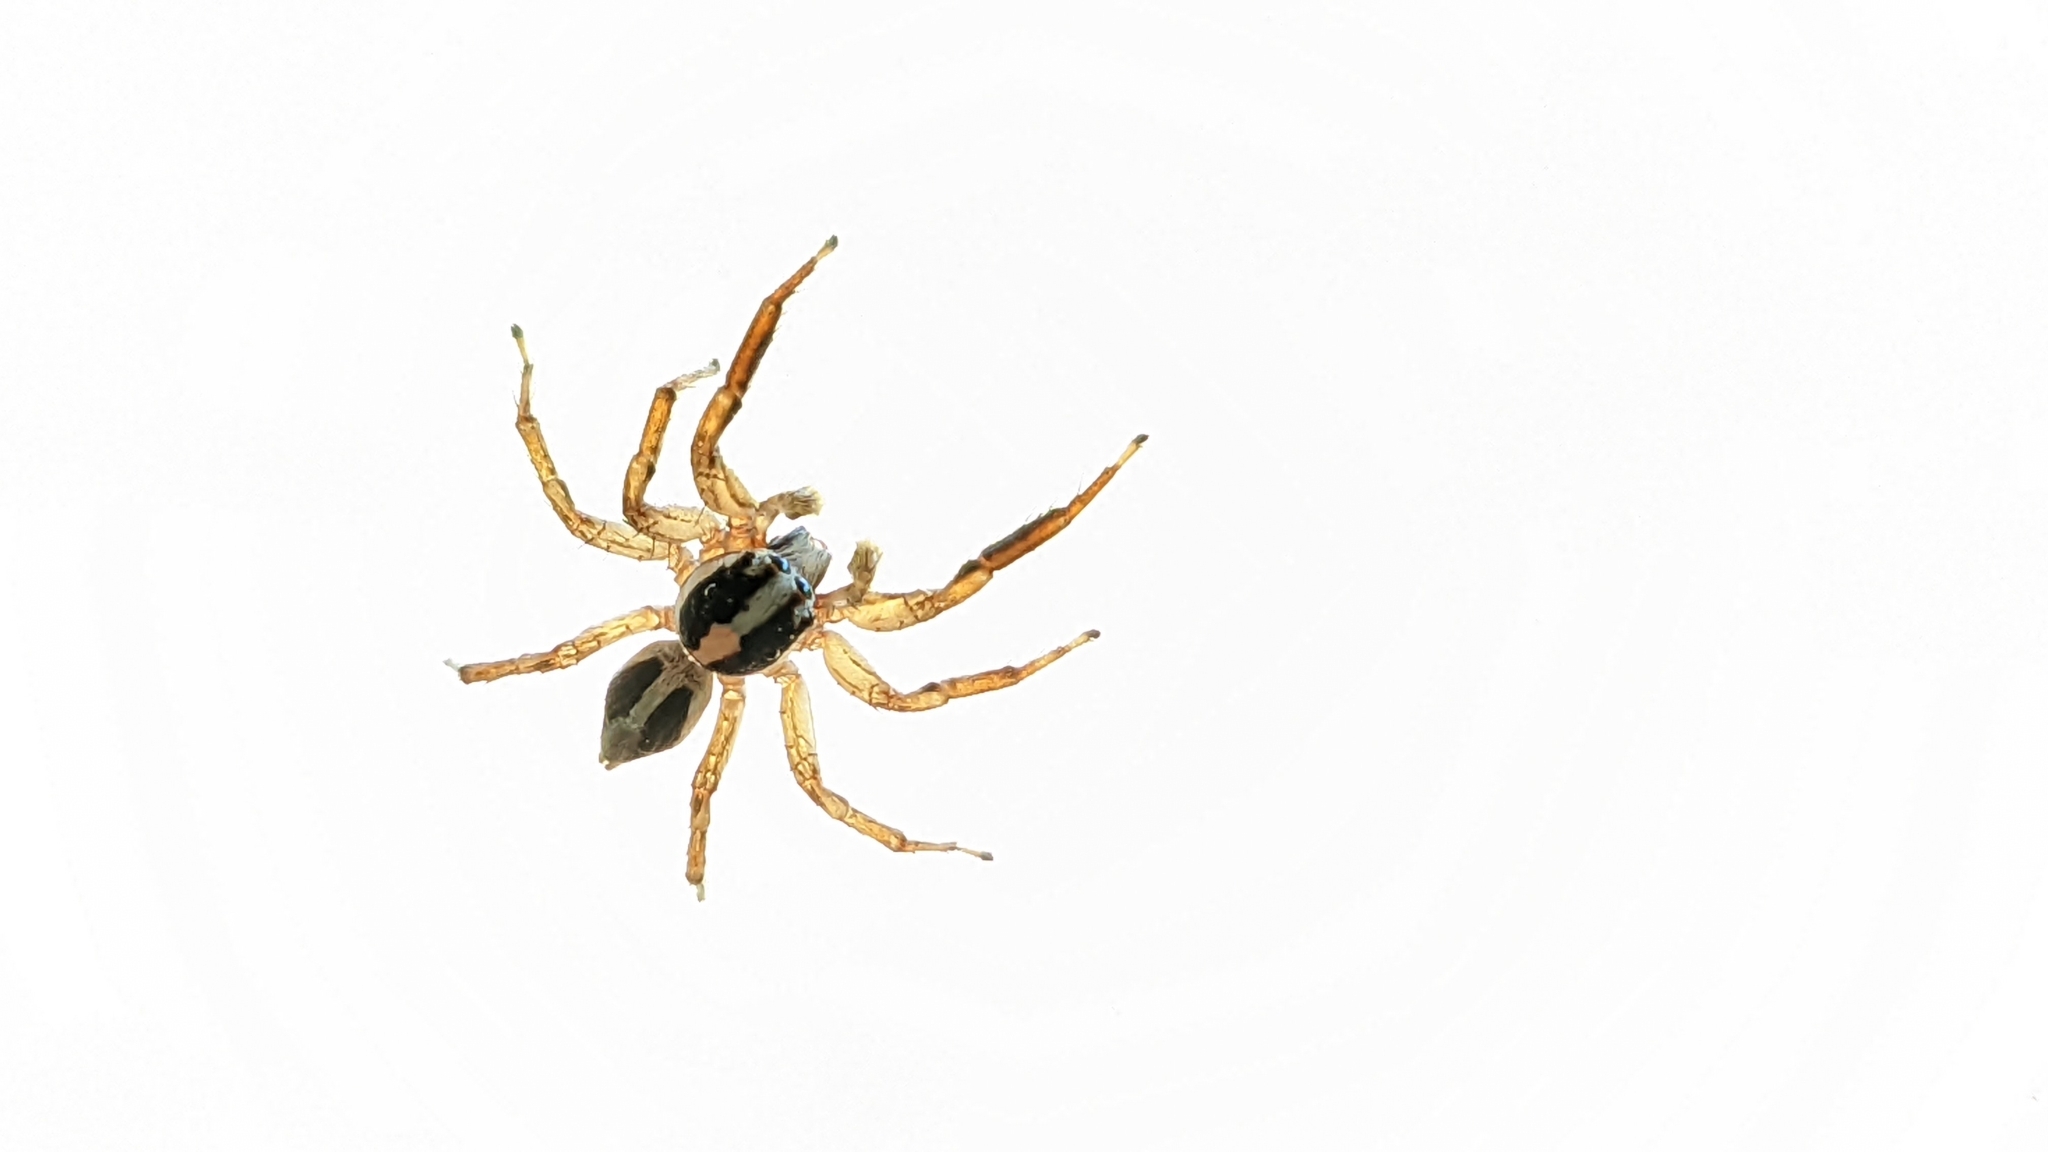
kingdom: Animalia
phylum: Arthropoda
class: Arachnida
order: Araneae
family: Salticidae
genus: Plexippus
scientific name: Plexippus paykulli
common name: Pantropical jumper
